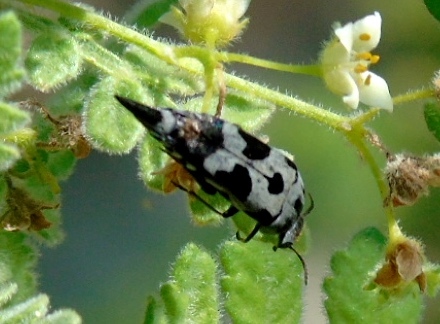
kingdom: Animalia
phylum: Arthropoda
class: Insecta
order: Coleoptera
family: Mordellidae
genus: Mordella
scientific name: Mordella
